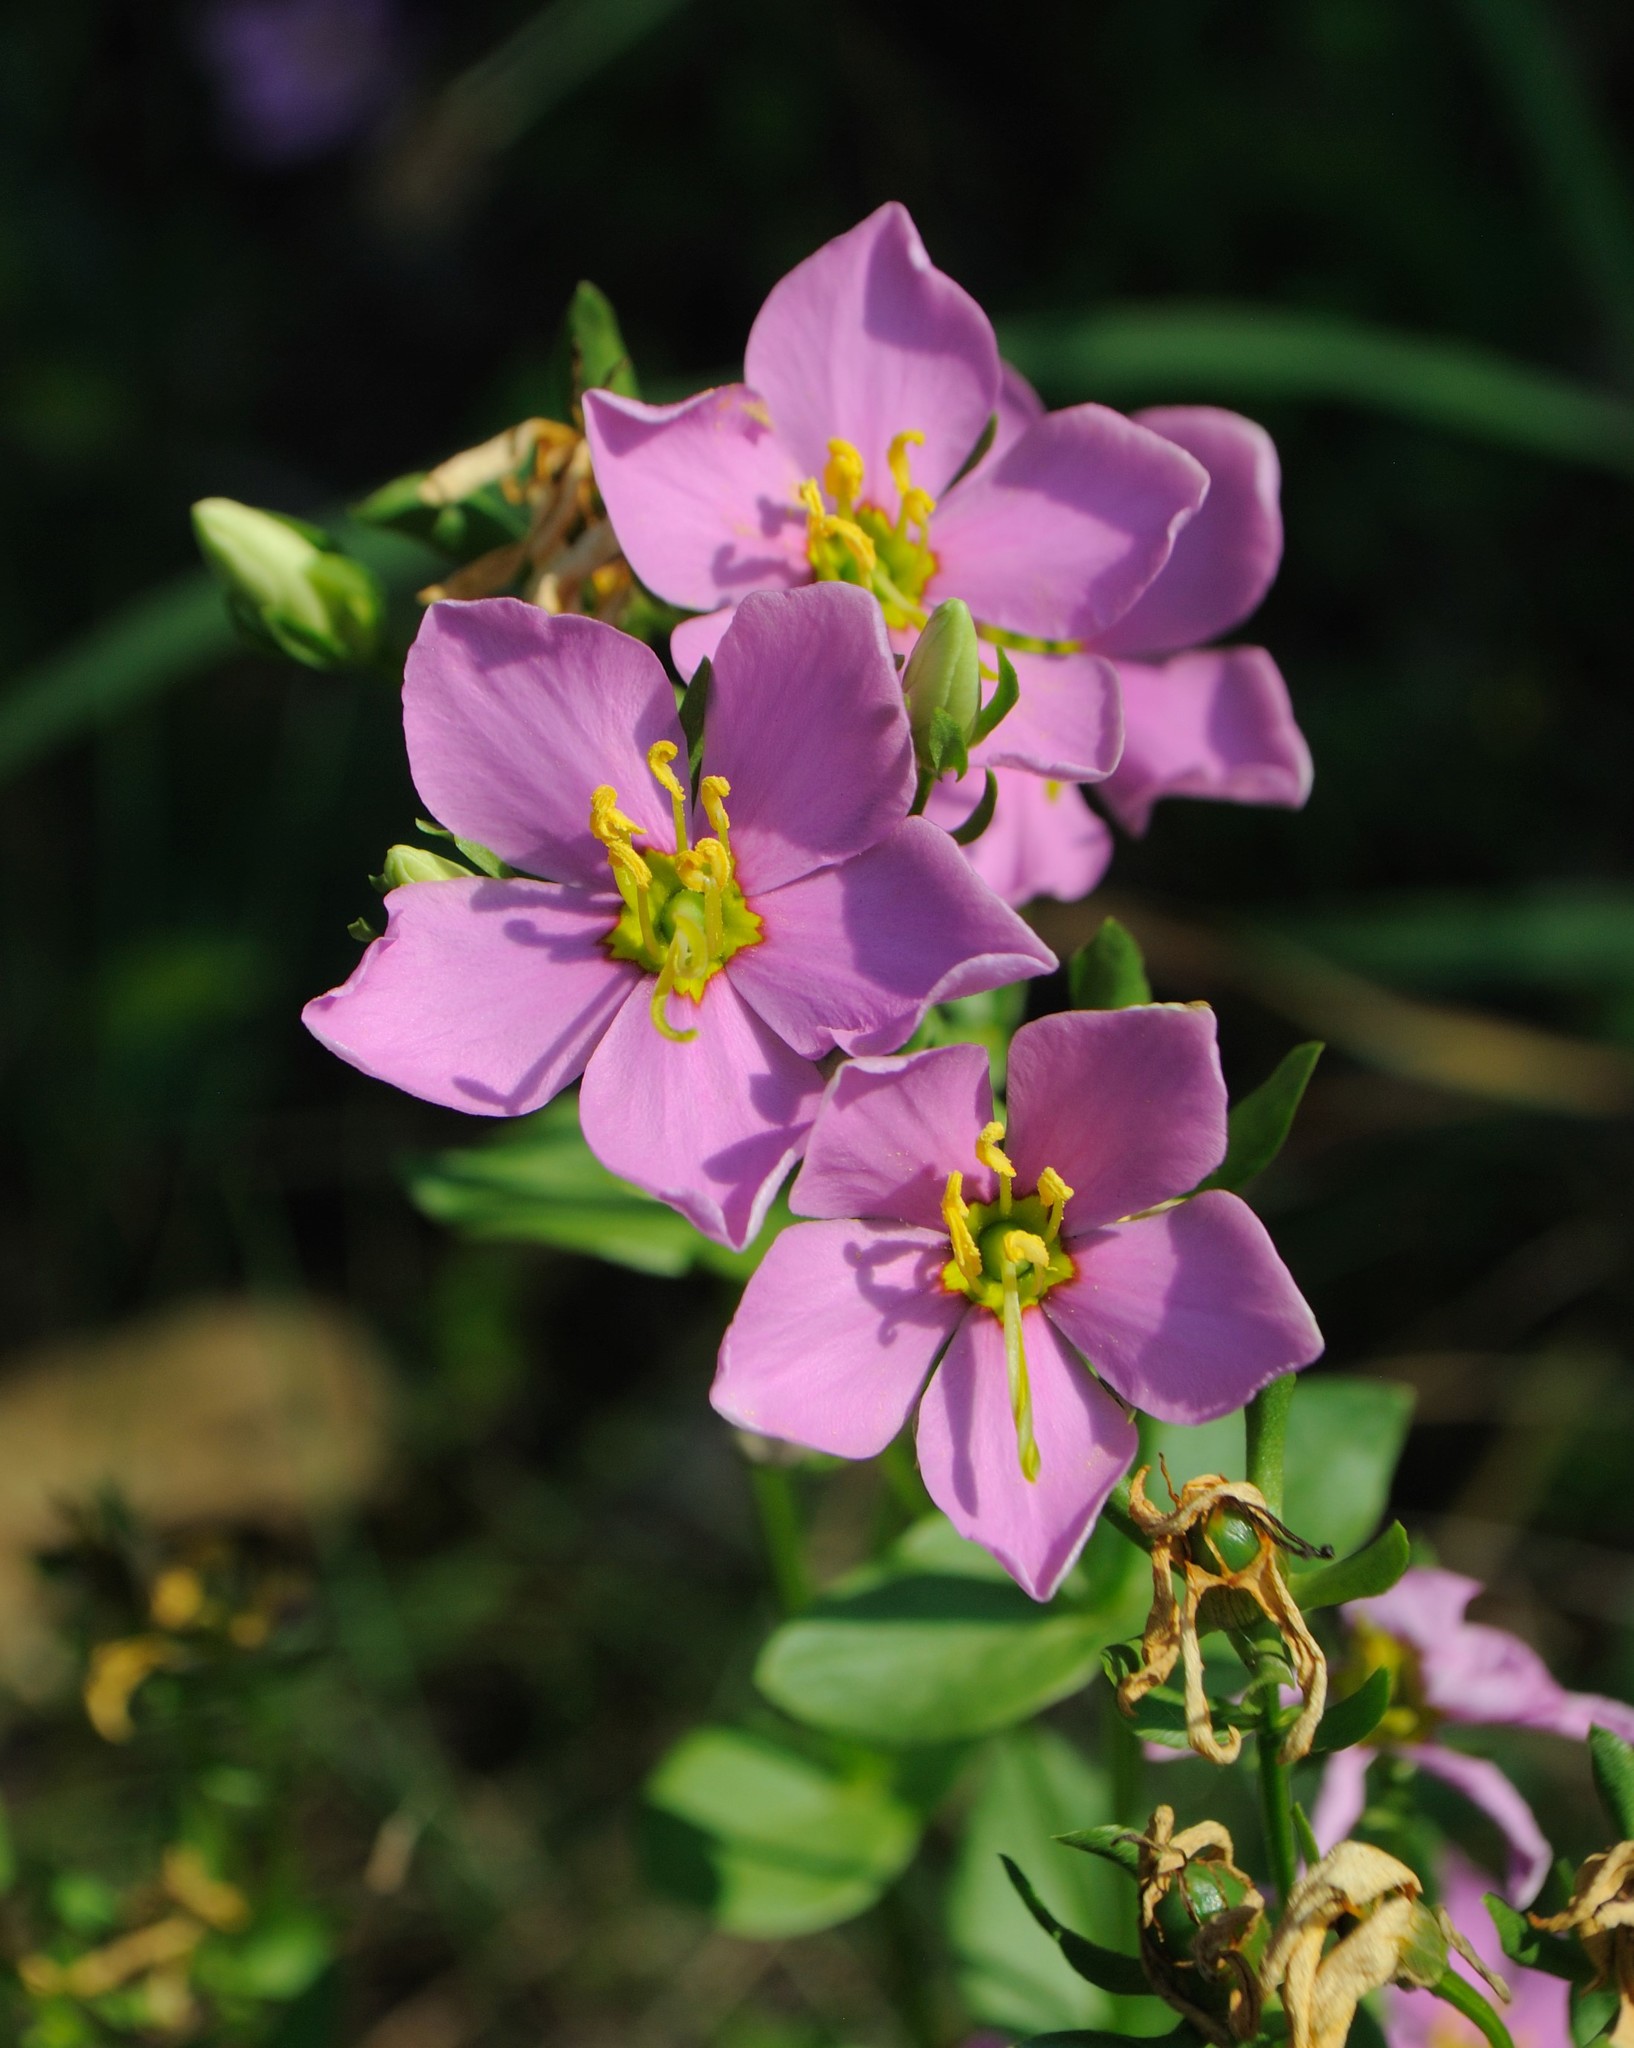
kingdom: Plantae
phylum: Tracheophyta
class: Magnoliopsida
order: Gentianales
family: Gentianaceae
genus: Sabatia
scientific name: Sabatia angularis
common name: Rose-pink
